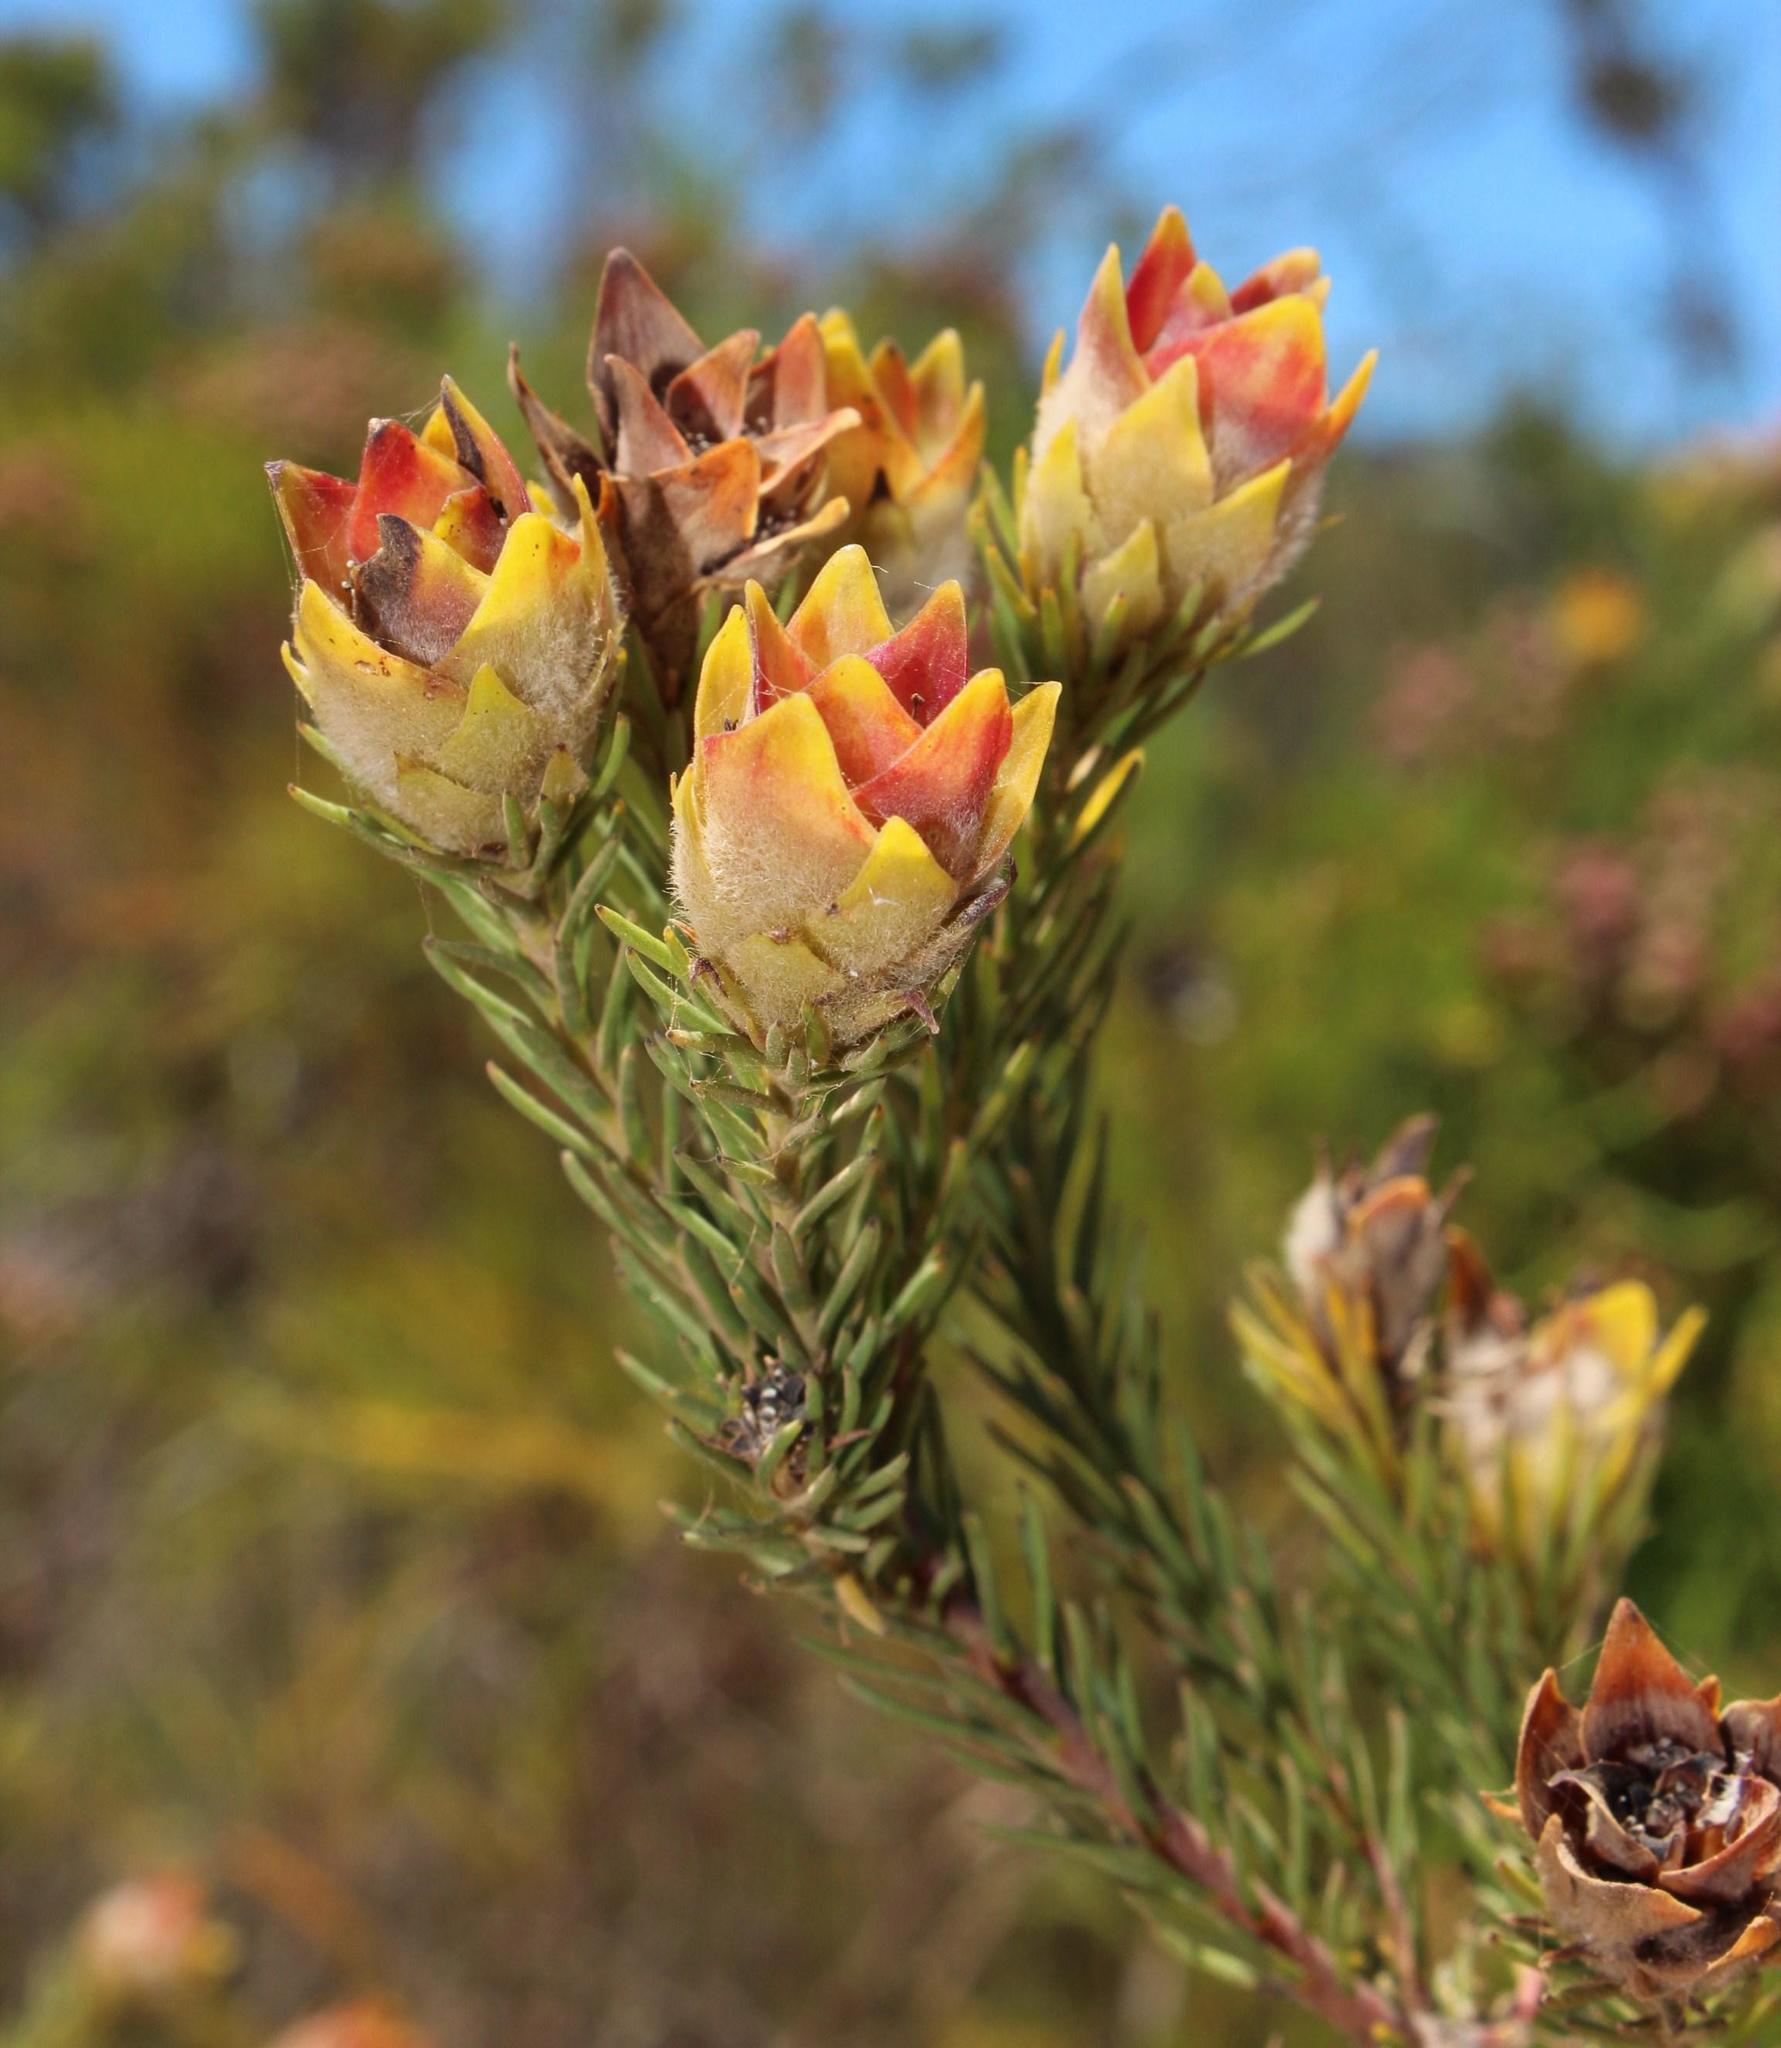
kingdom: Plantae
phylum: Tracheophyta
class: Magnoliopsida
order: Proteales
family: Proteaceae
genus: Leucadendron
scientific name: Leucadendron laxum
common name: Bredasdorp conebush
